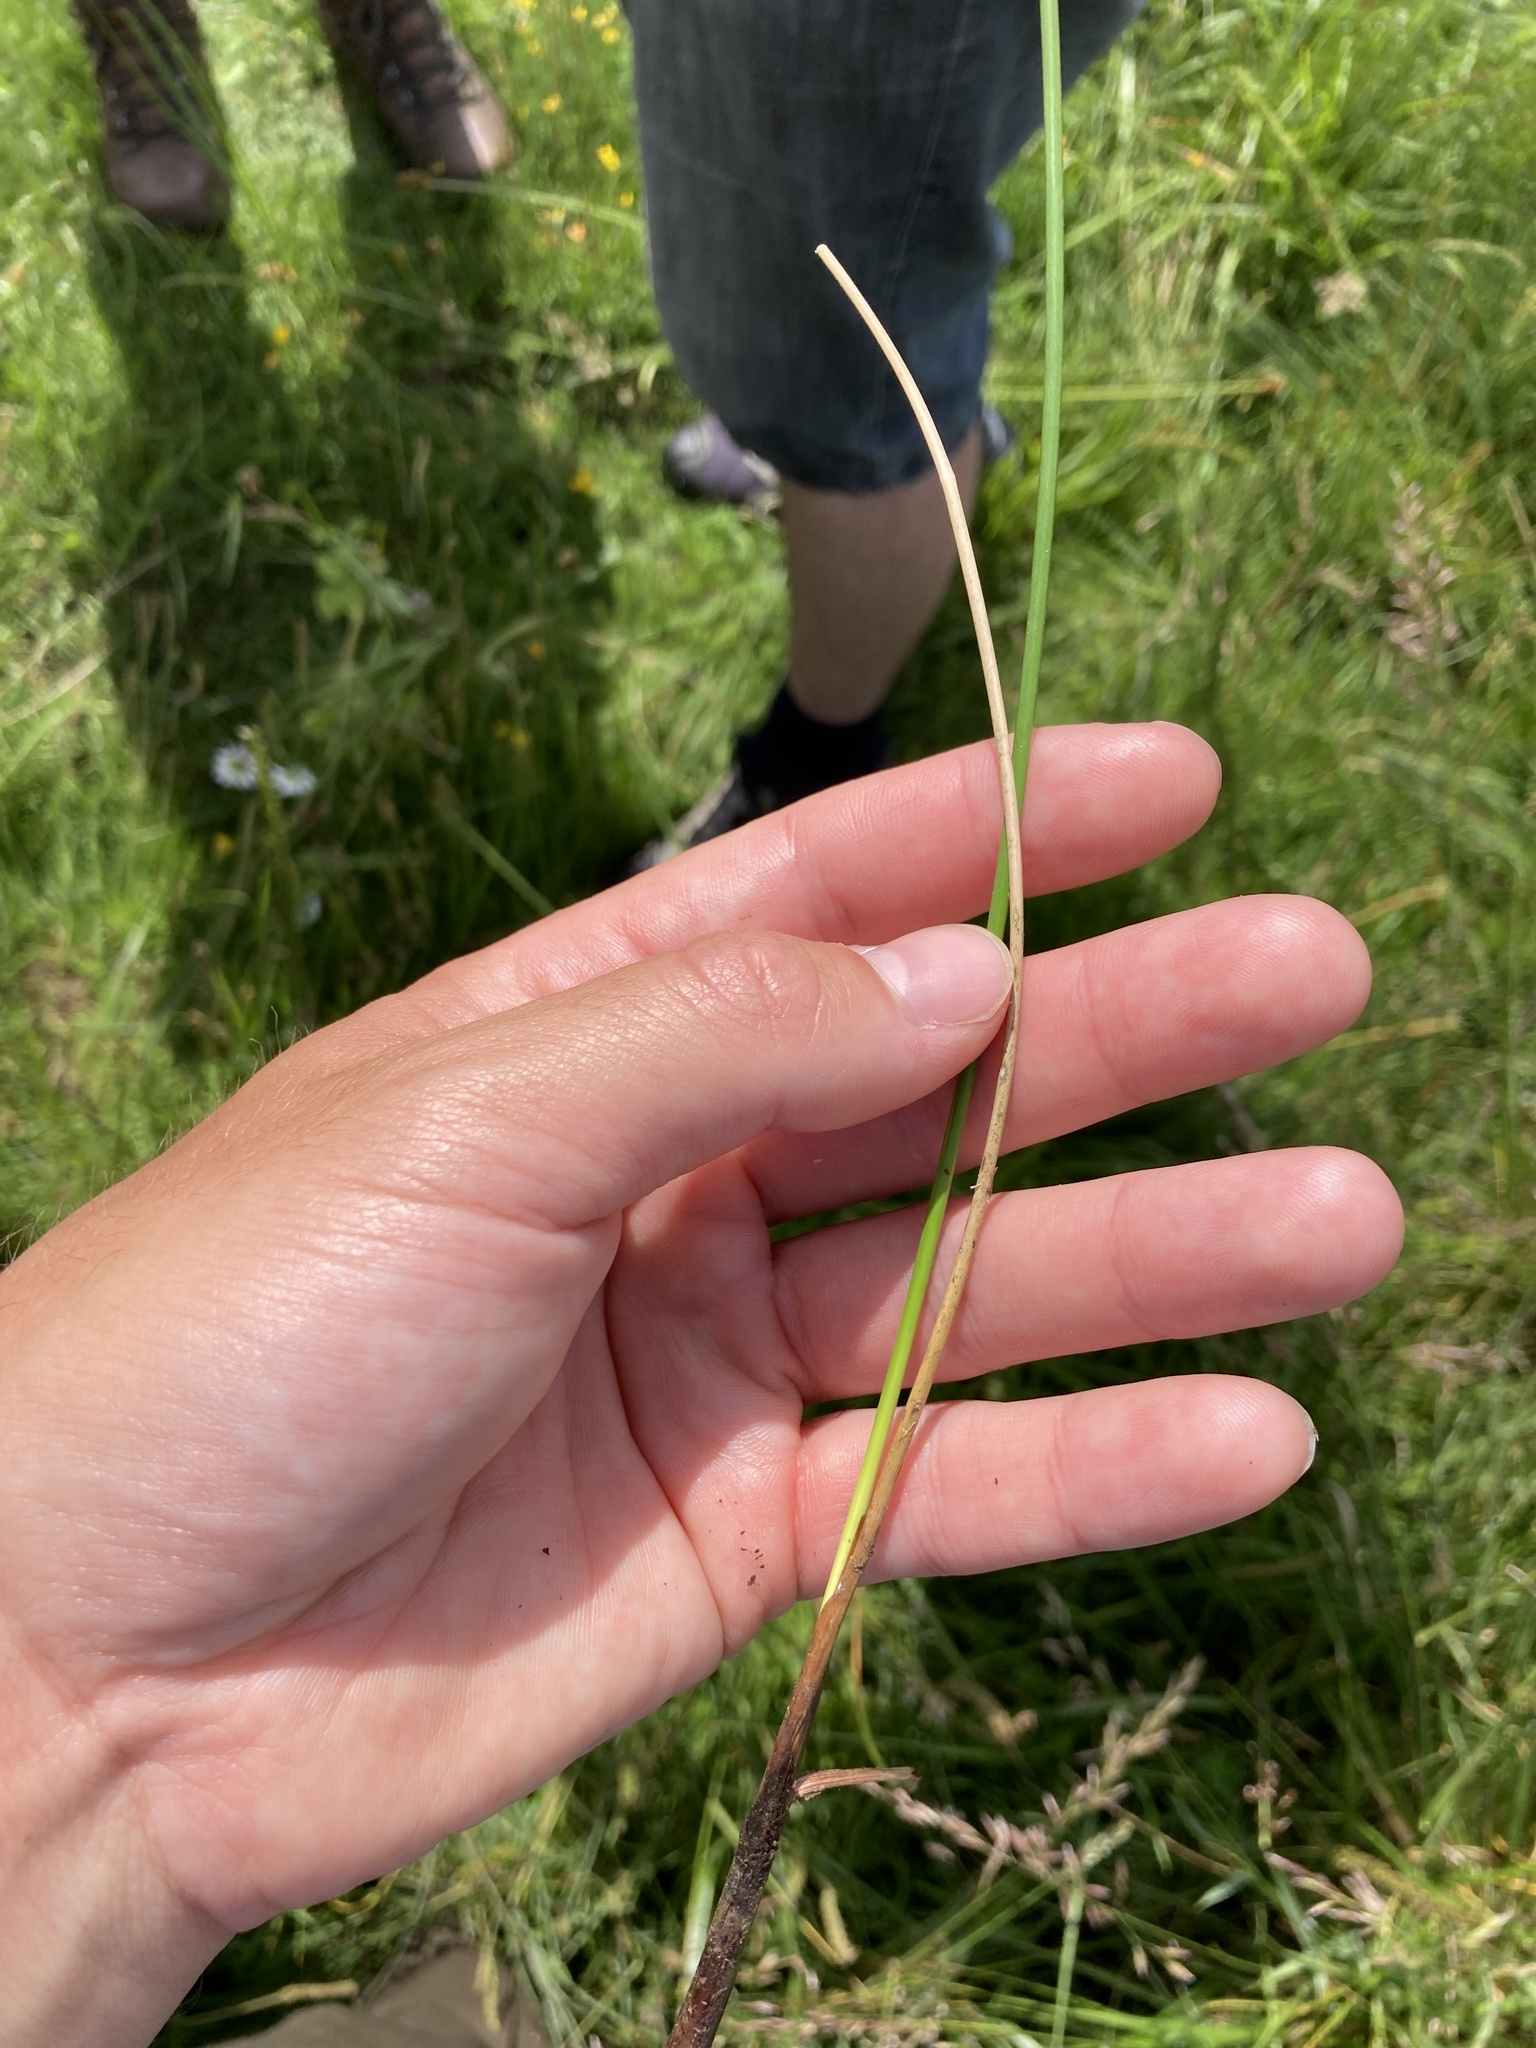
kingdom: Plantae
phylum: Tracheophyta
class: Liliopsida
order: Poales
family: Juncaceae
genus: Juncus
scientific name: Juncus maritimus
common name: Sea rush
